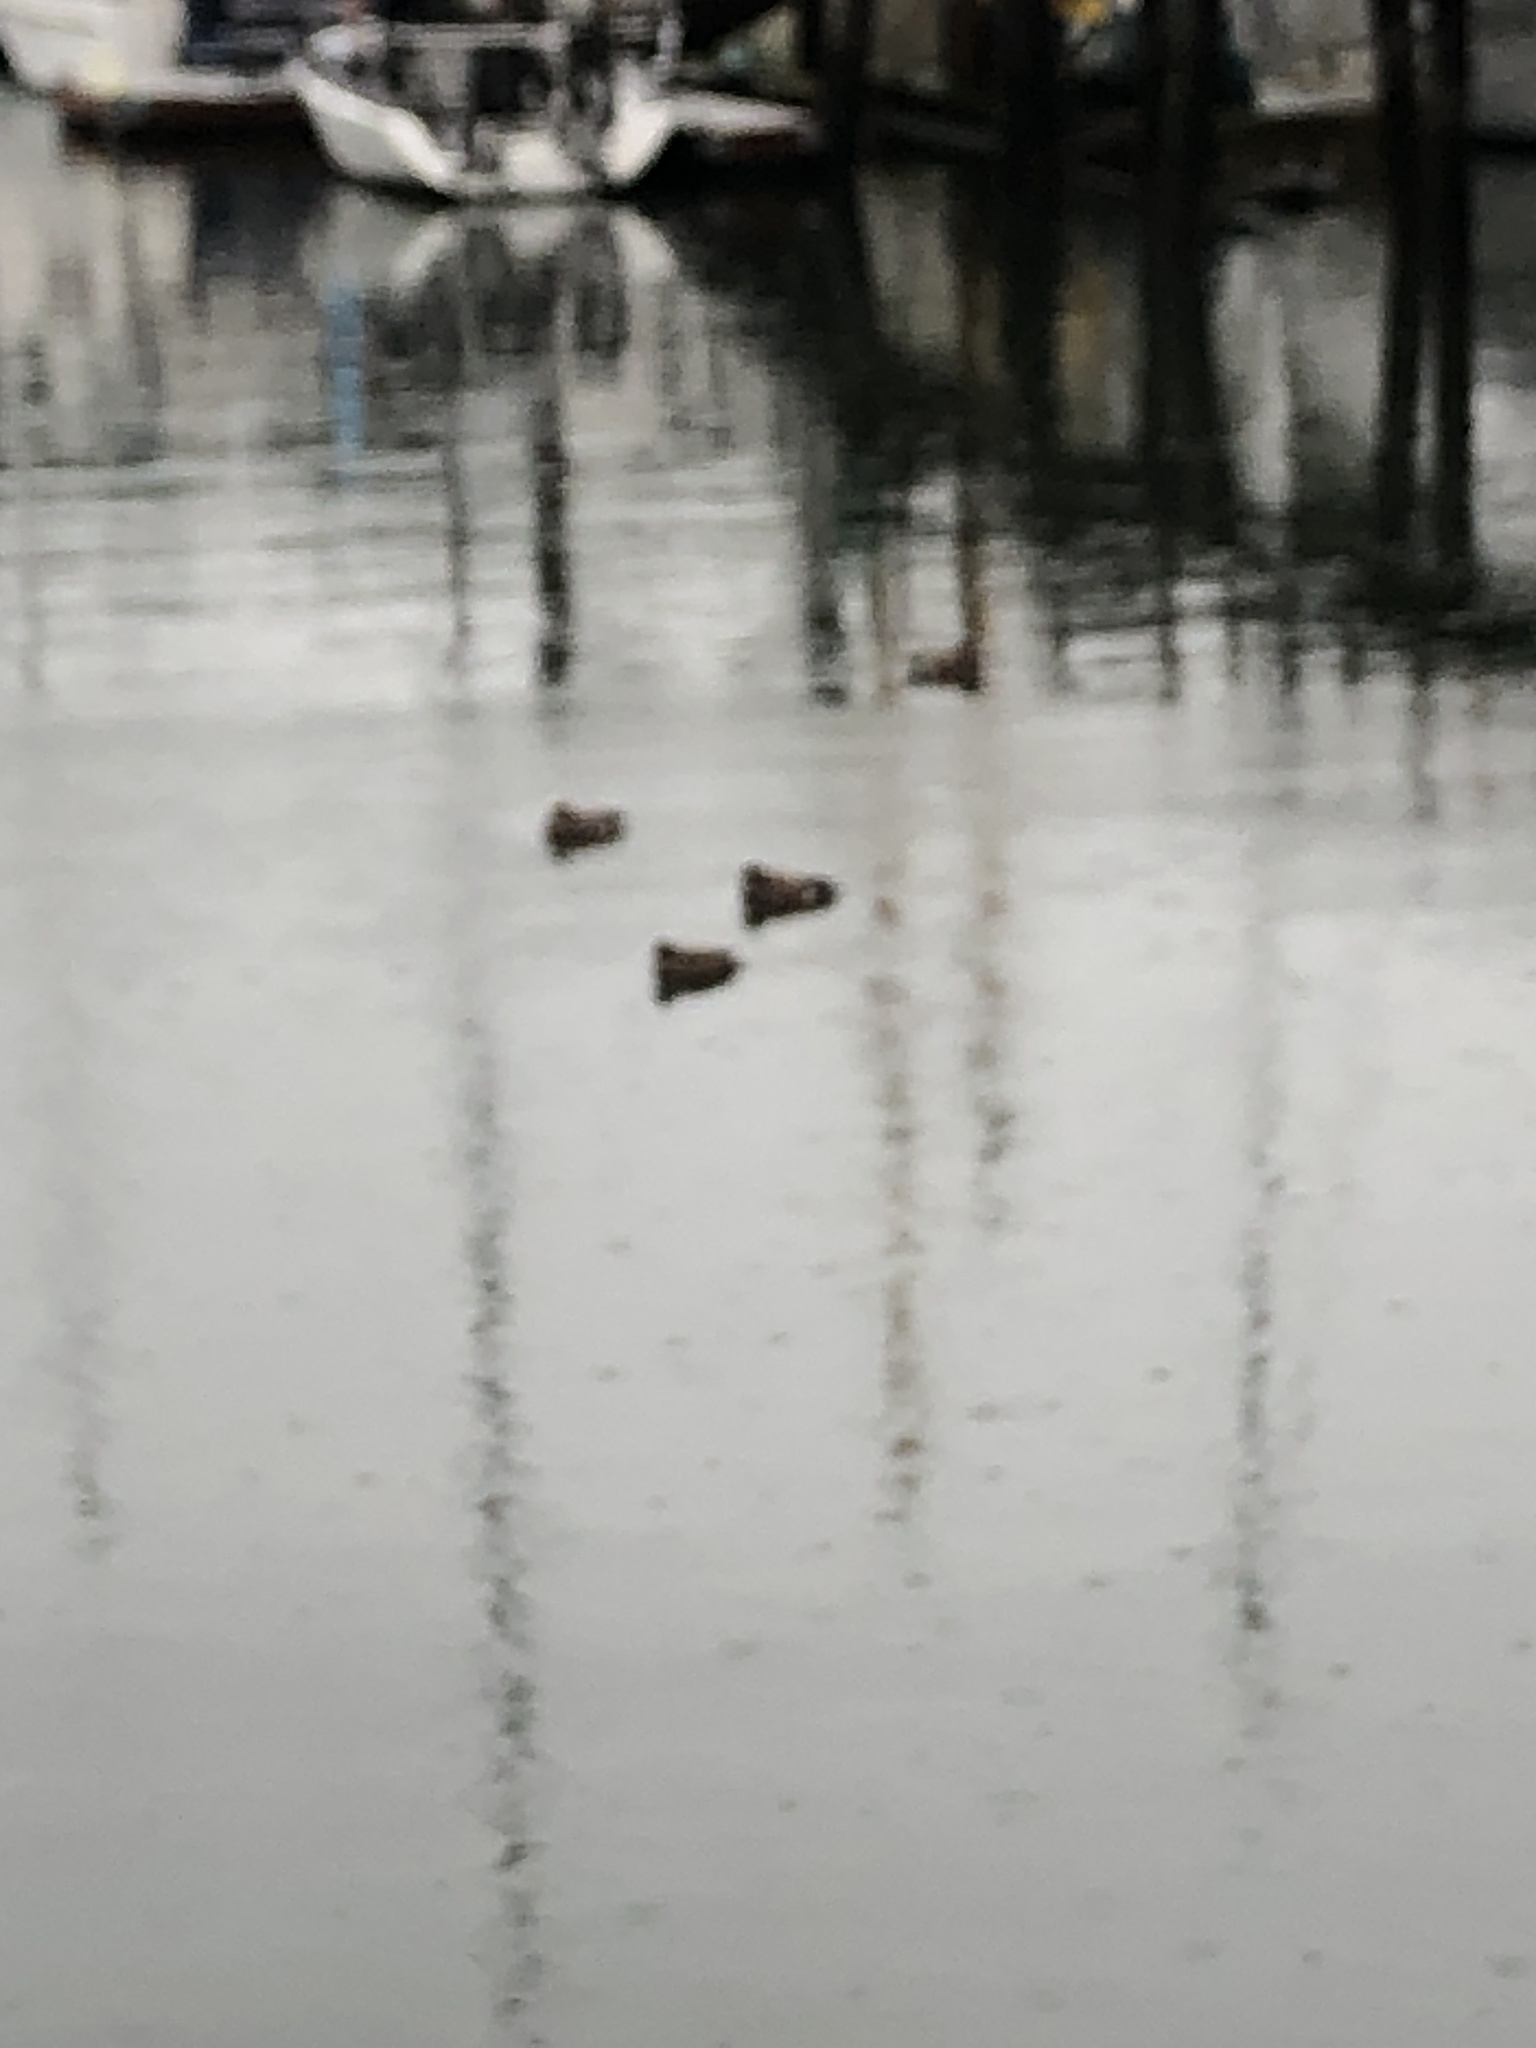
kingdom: Animalia
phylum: Chordata
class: Aves
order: Anseriformes
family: Anatidae
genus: Mareca
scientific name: Mareca americana
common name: American wigeon
